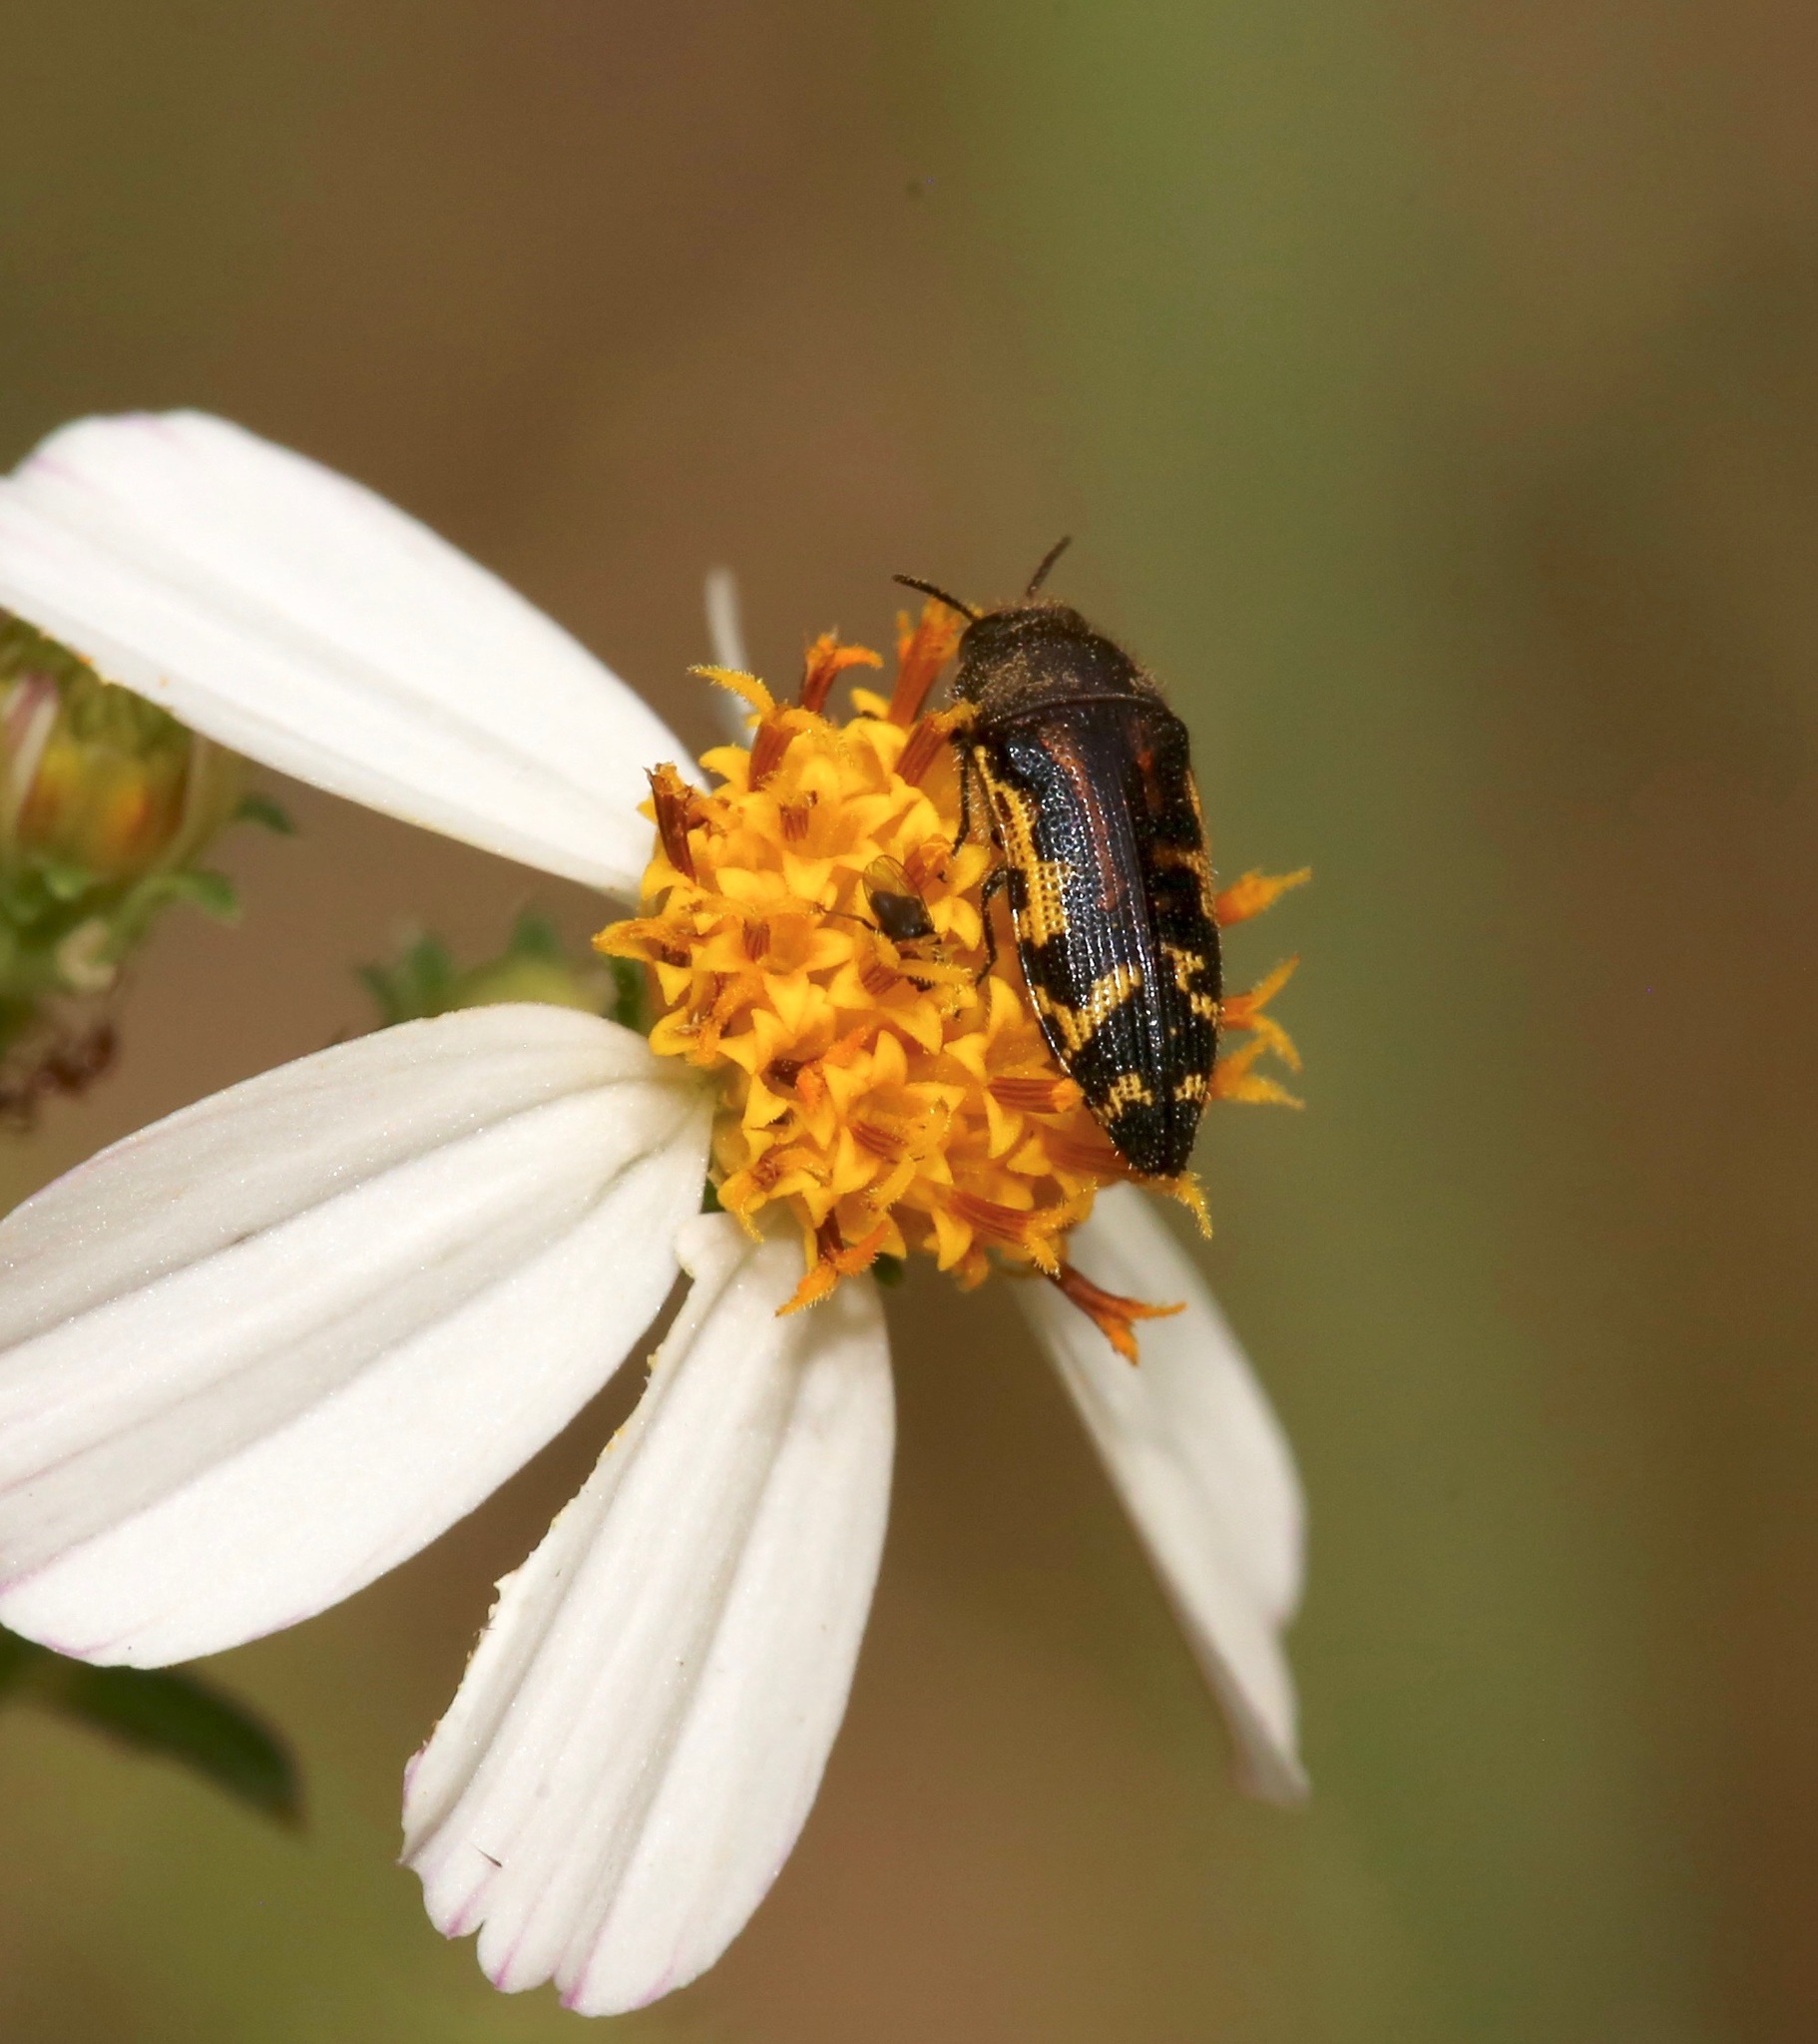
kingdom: Animalia
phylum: Arthropoda
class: Insecta
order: Coleoptera
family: Buprestidae
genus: Acmaeodera
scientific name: Acmaeodera pulchella
